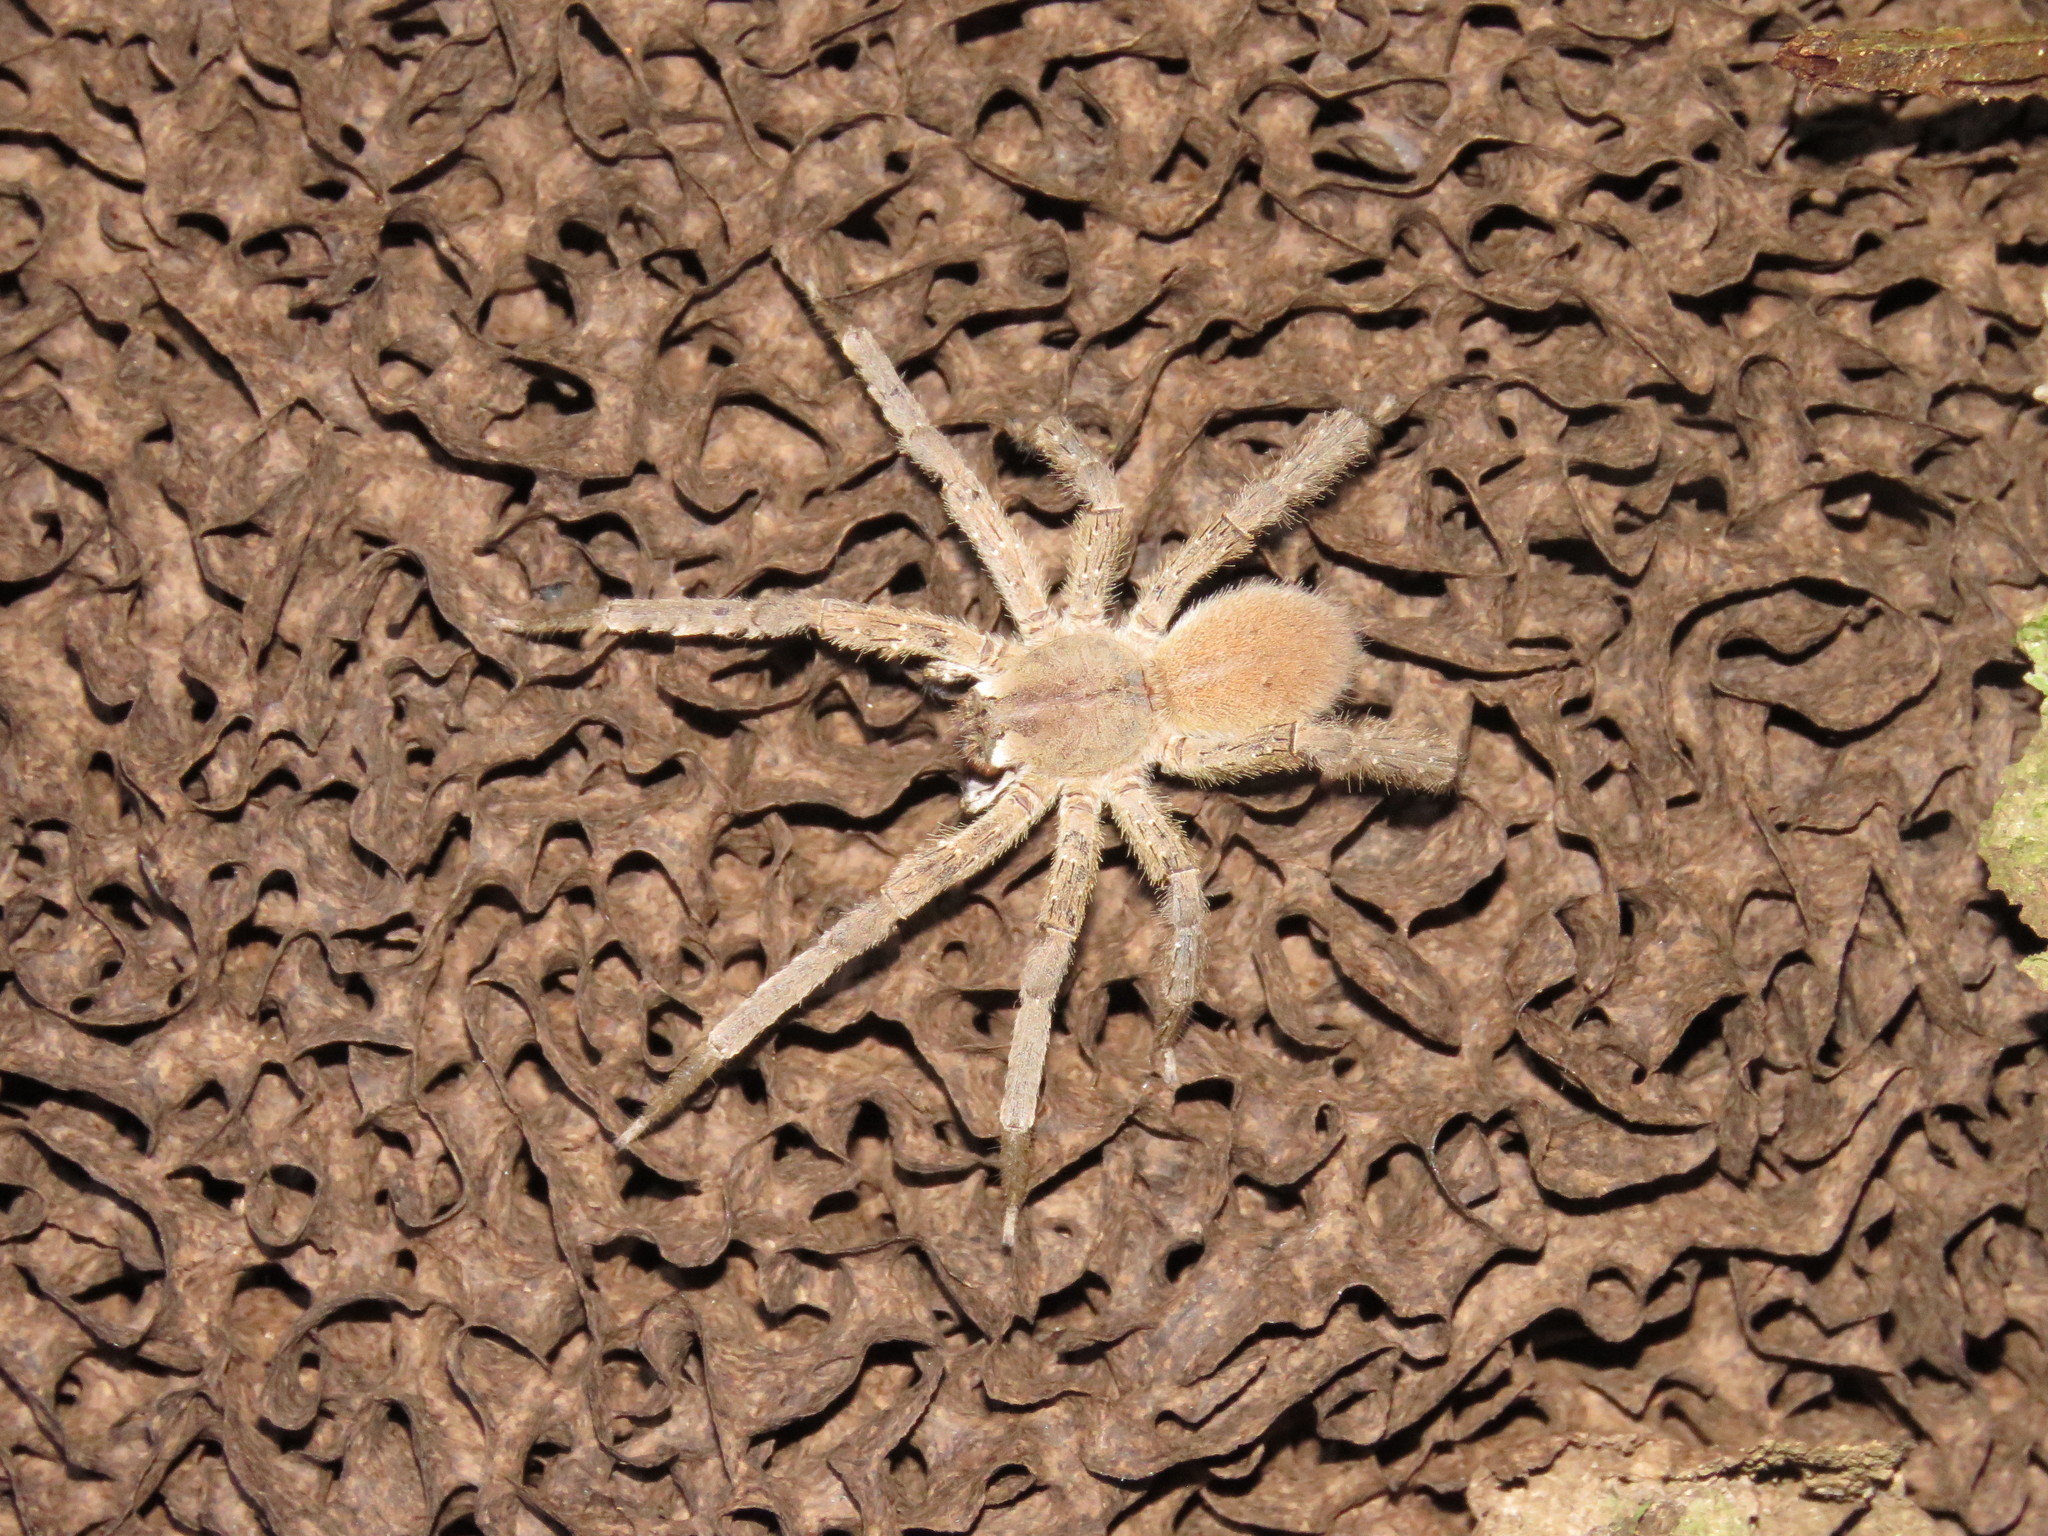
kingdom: Animalia
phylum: Arthropoda
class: Arachnida
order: Araneae
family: Ctenidae
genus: Phoneutria
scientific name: Phoneutria boliviensis
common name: Wandering spiders
